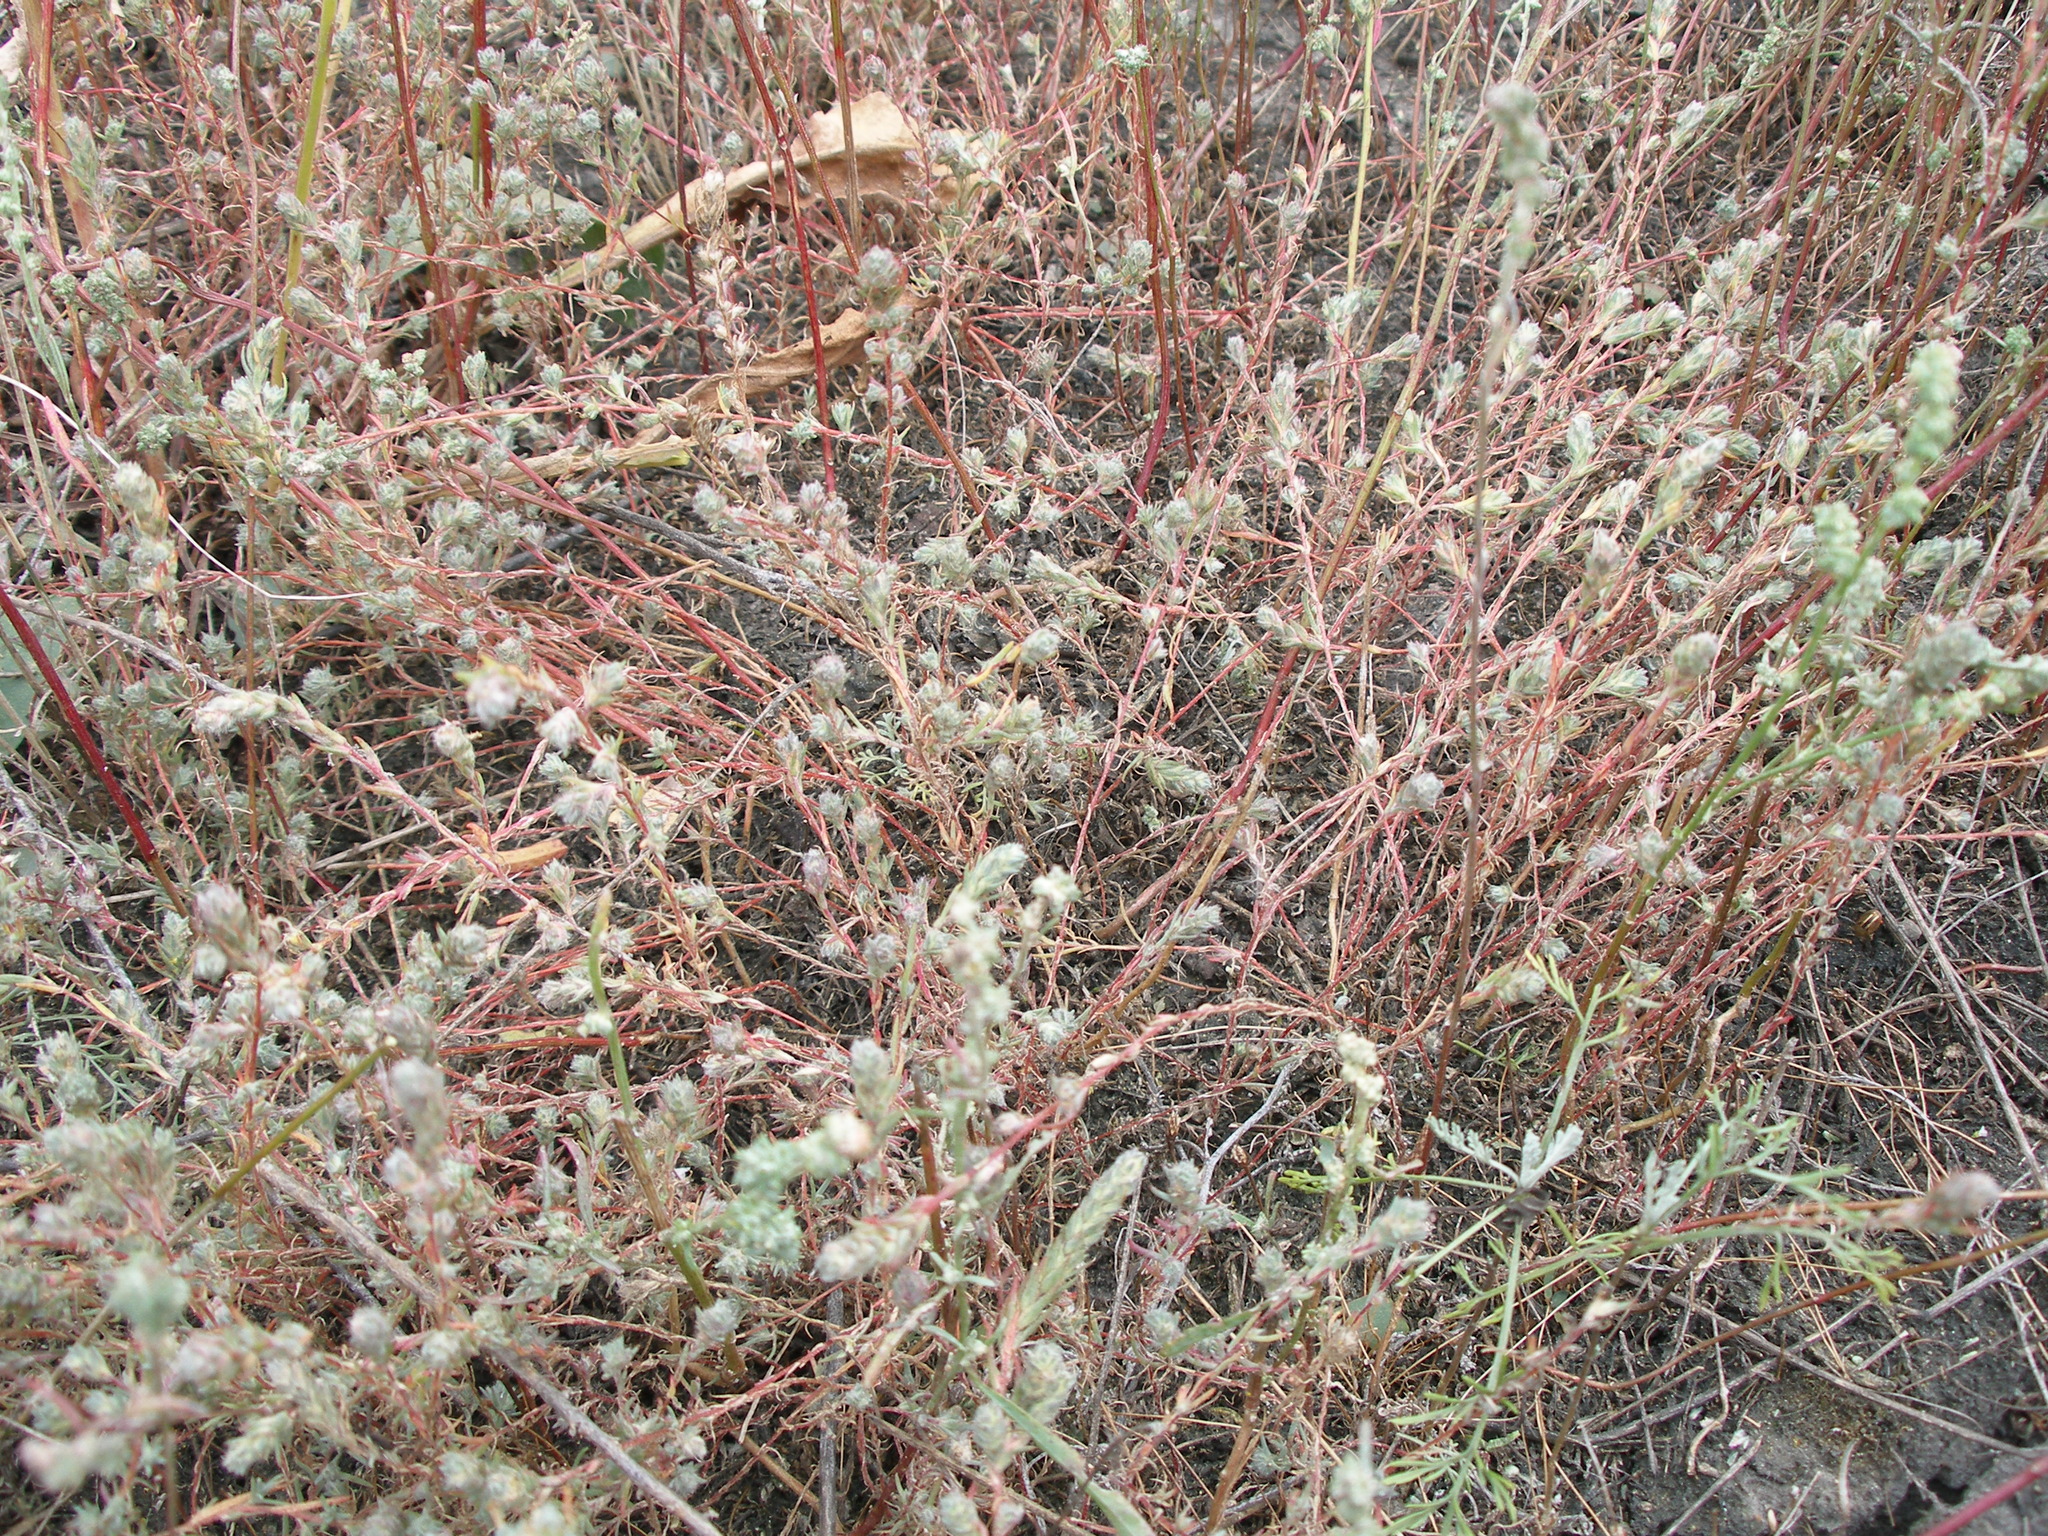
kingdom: Plantae
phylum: Tracheophyta
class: Magnoliopsida
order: Caryophyllales
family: Amaranthaceae
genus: Sedobassia
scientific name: Sedobassia sedoides
